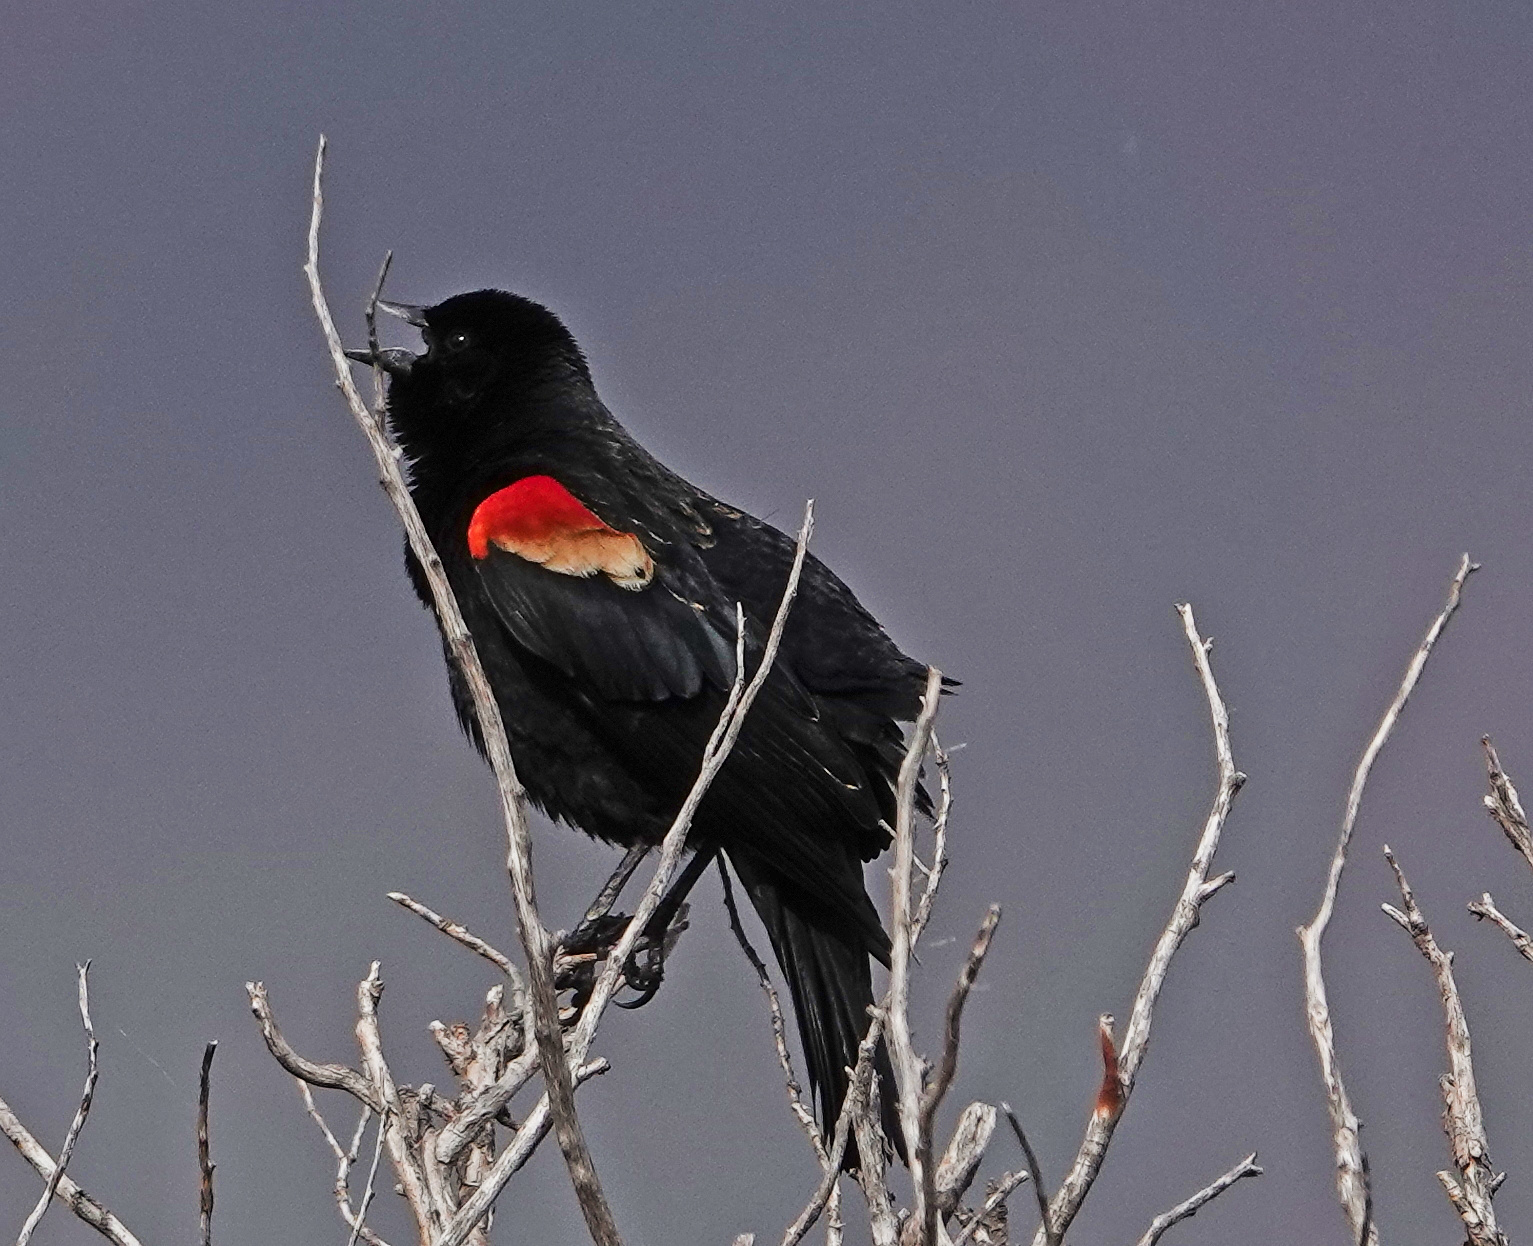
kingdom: Animalia
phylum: Chordata
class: Aves
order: Passeriformes
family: Icteridae
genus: Agelaius
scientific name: Agelaius phoeniceus
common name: Red-winged blackbird
